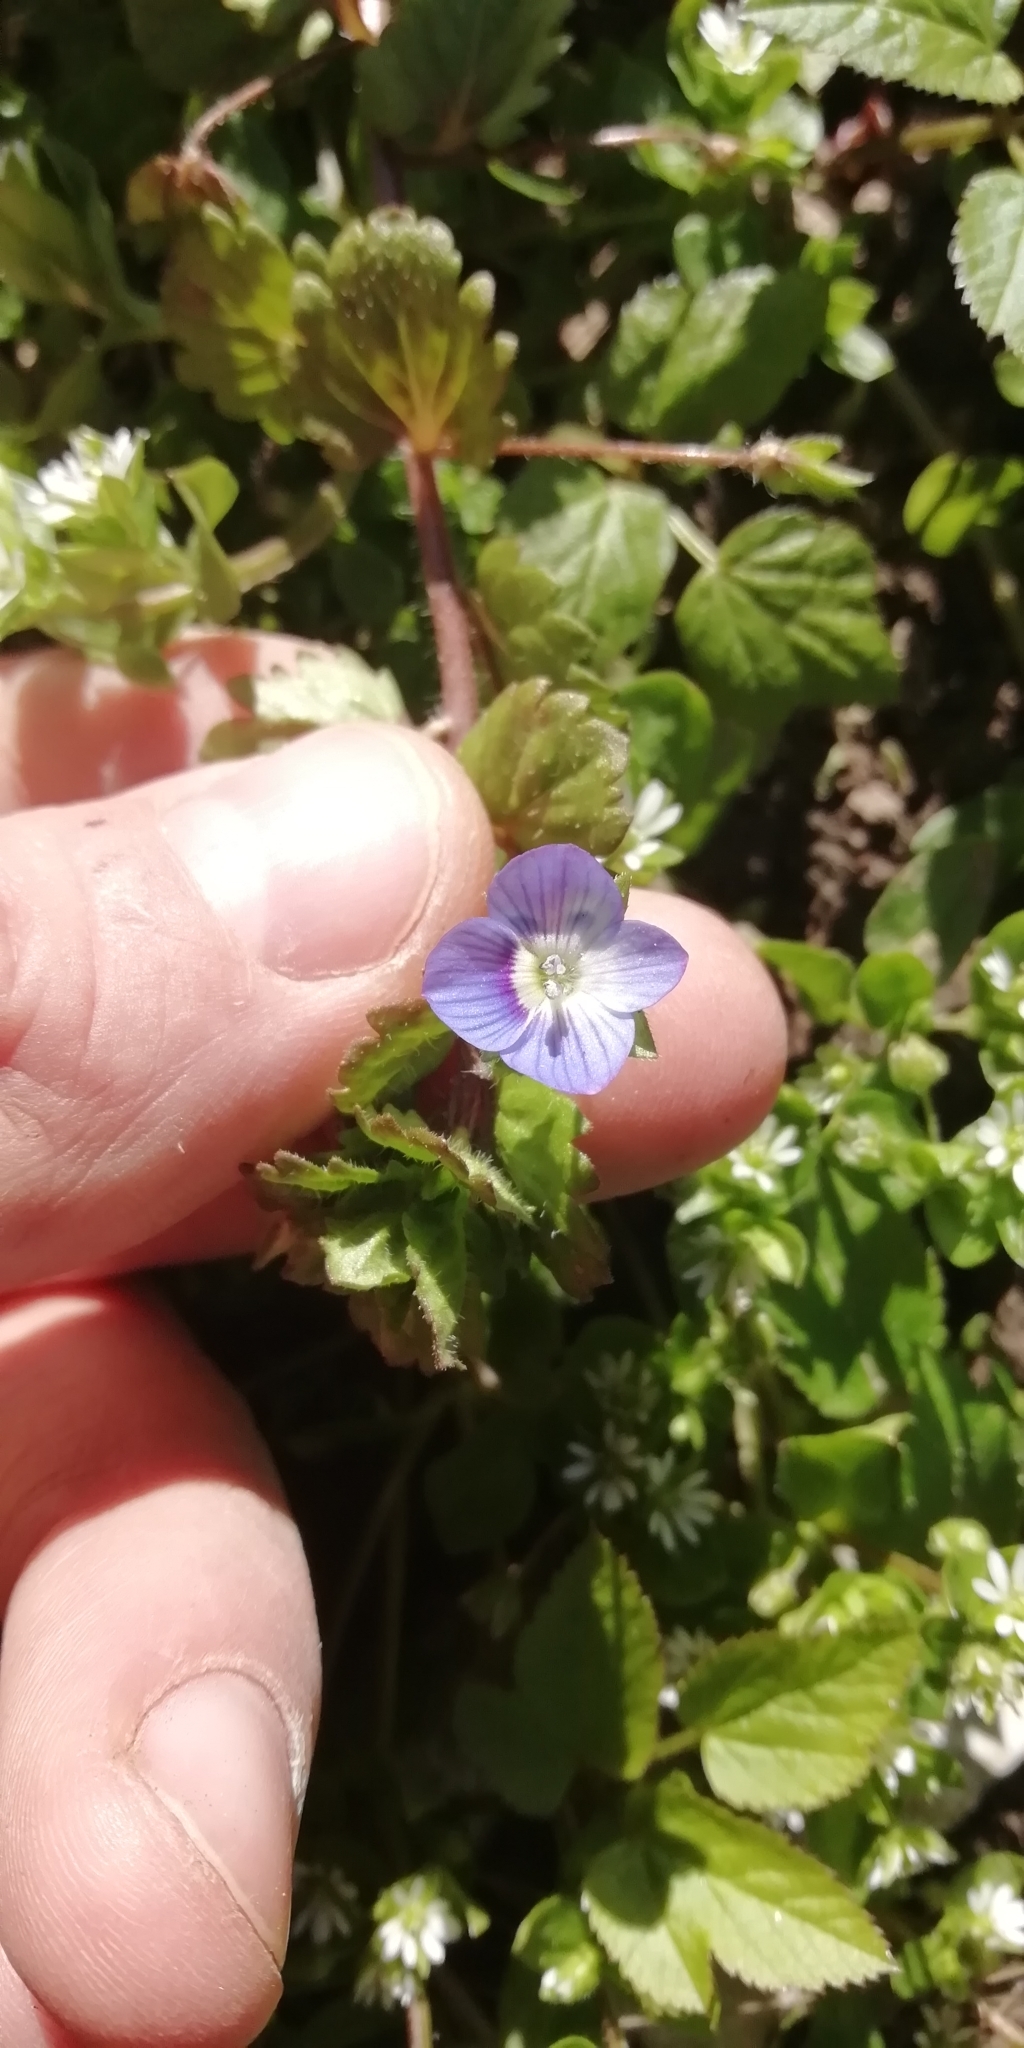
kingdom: Plantae
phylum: Tracheophyta
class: Magnoliopsida
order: Lamiales
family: Plantaginaceae
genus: Veronica
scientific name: Veronica persica
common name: Common field-speedwell
